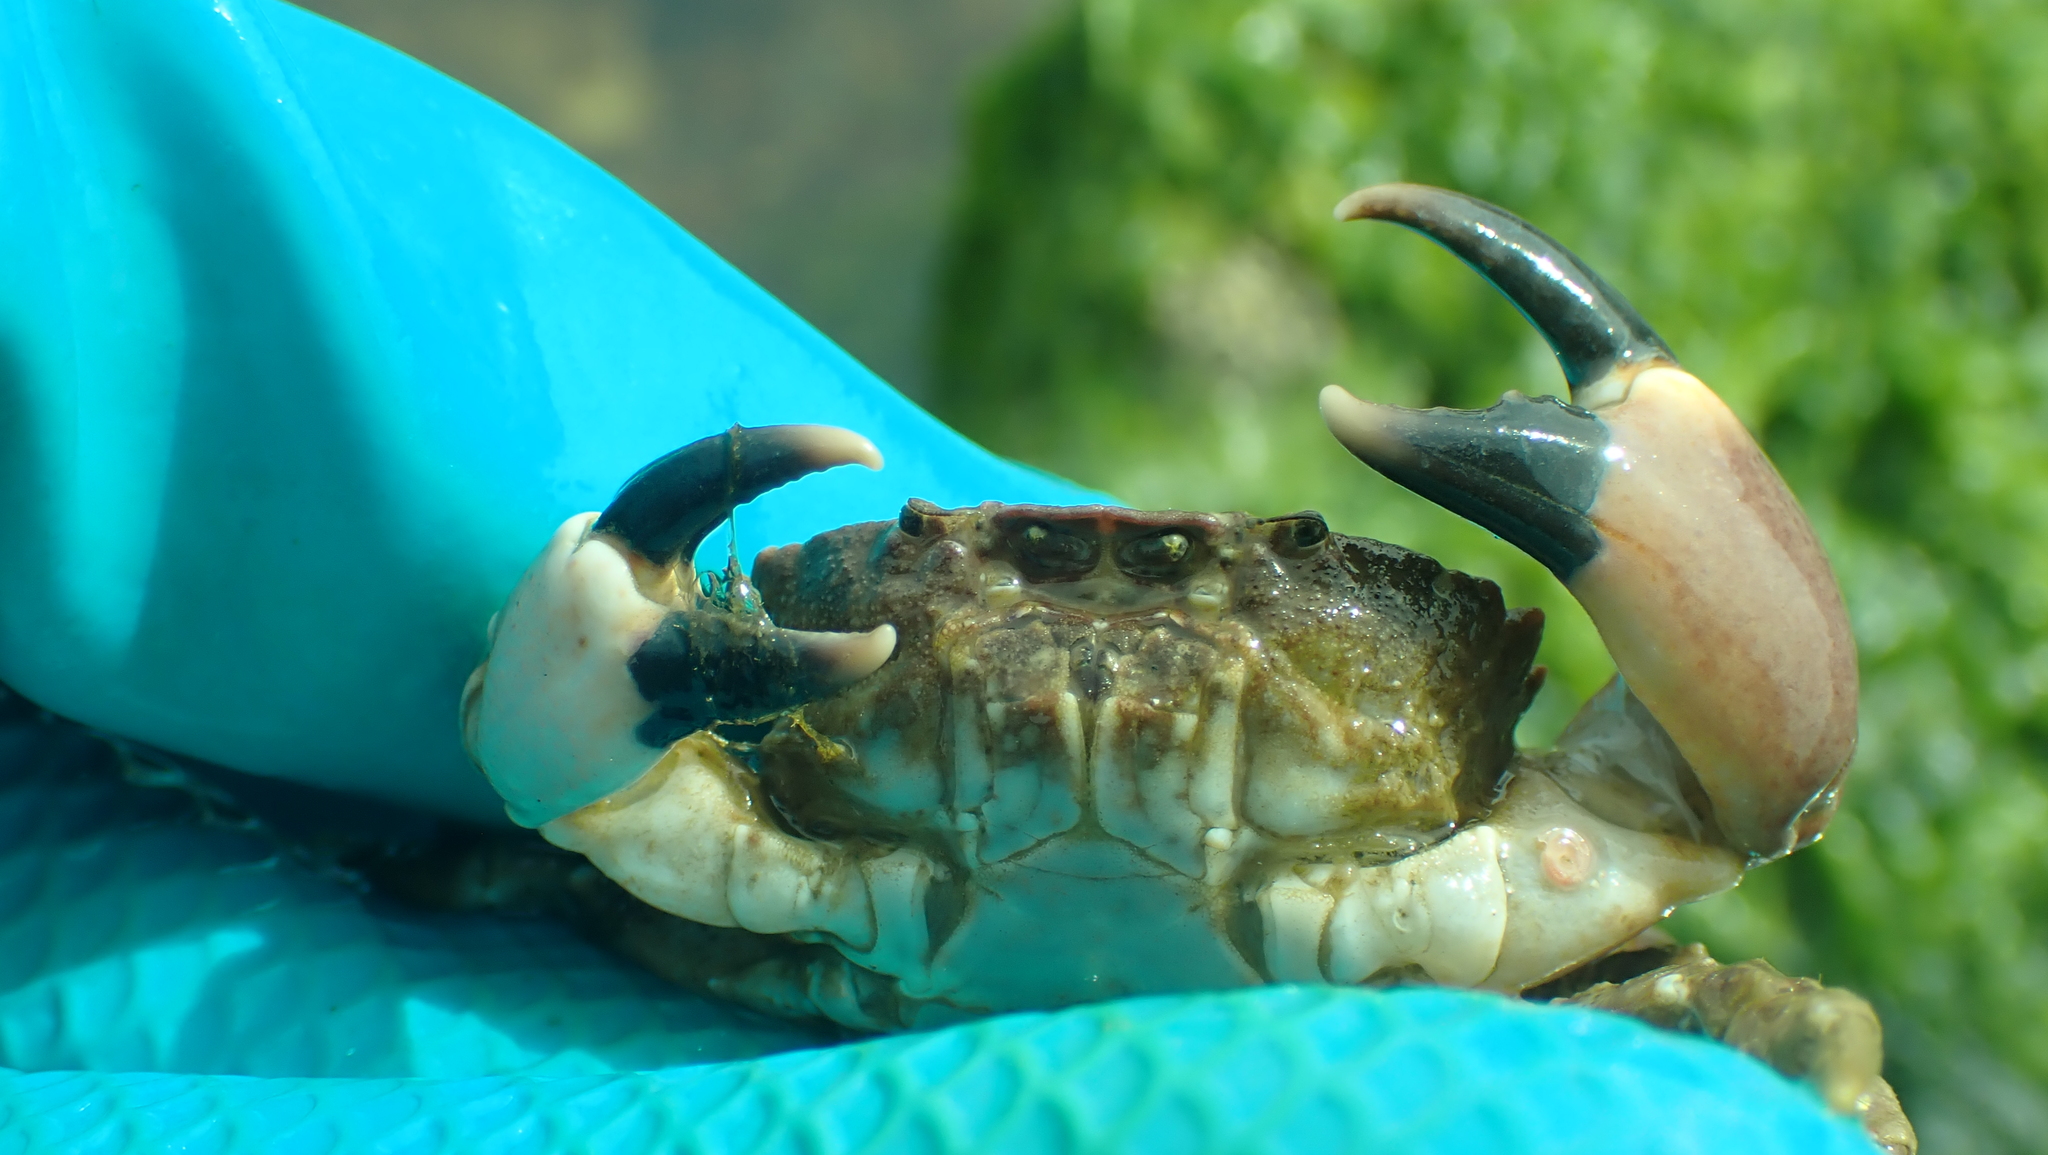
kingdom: Animalia
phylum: Arthropoda
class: Malacostraca
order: Decapoda
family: Panopeidae
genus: Lophopanopeus
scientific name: Lophopanopeus bellus
